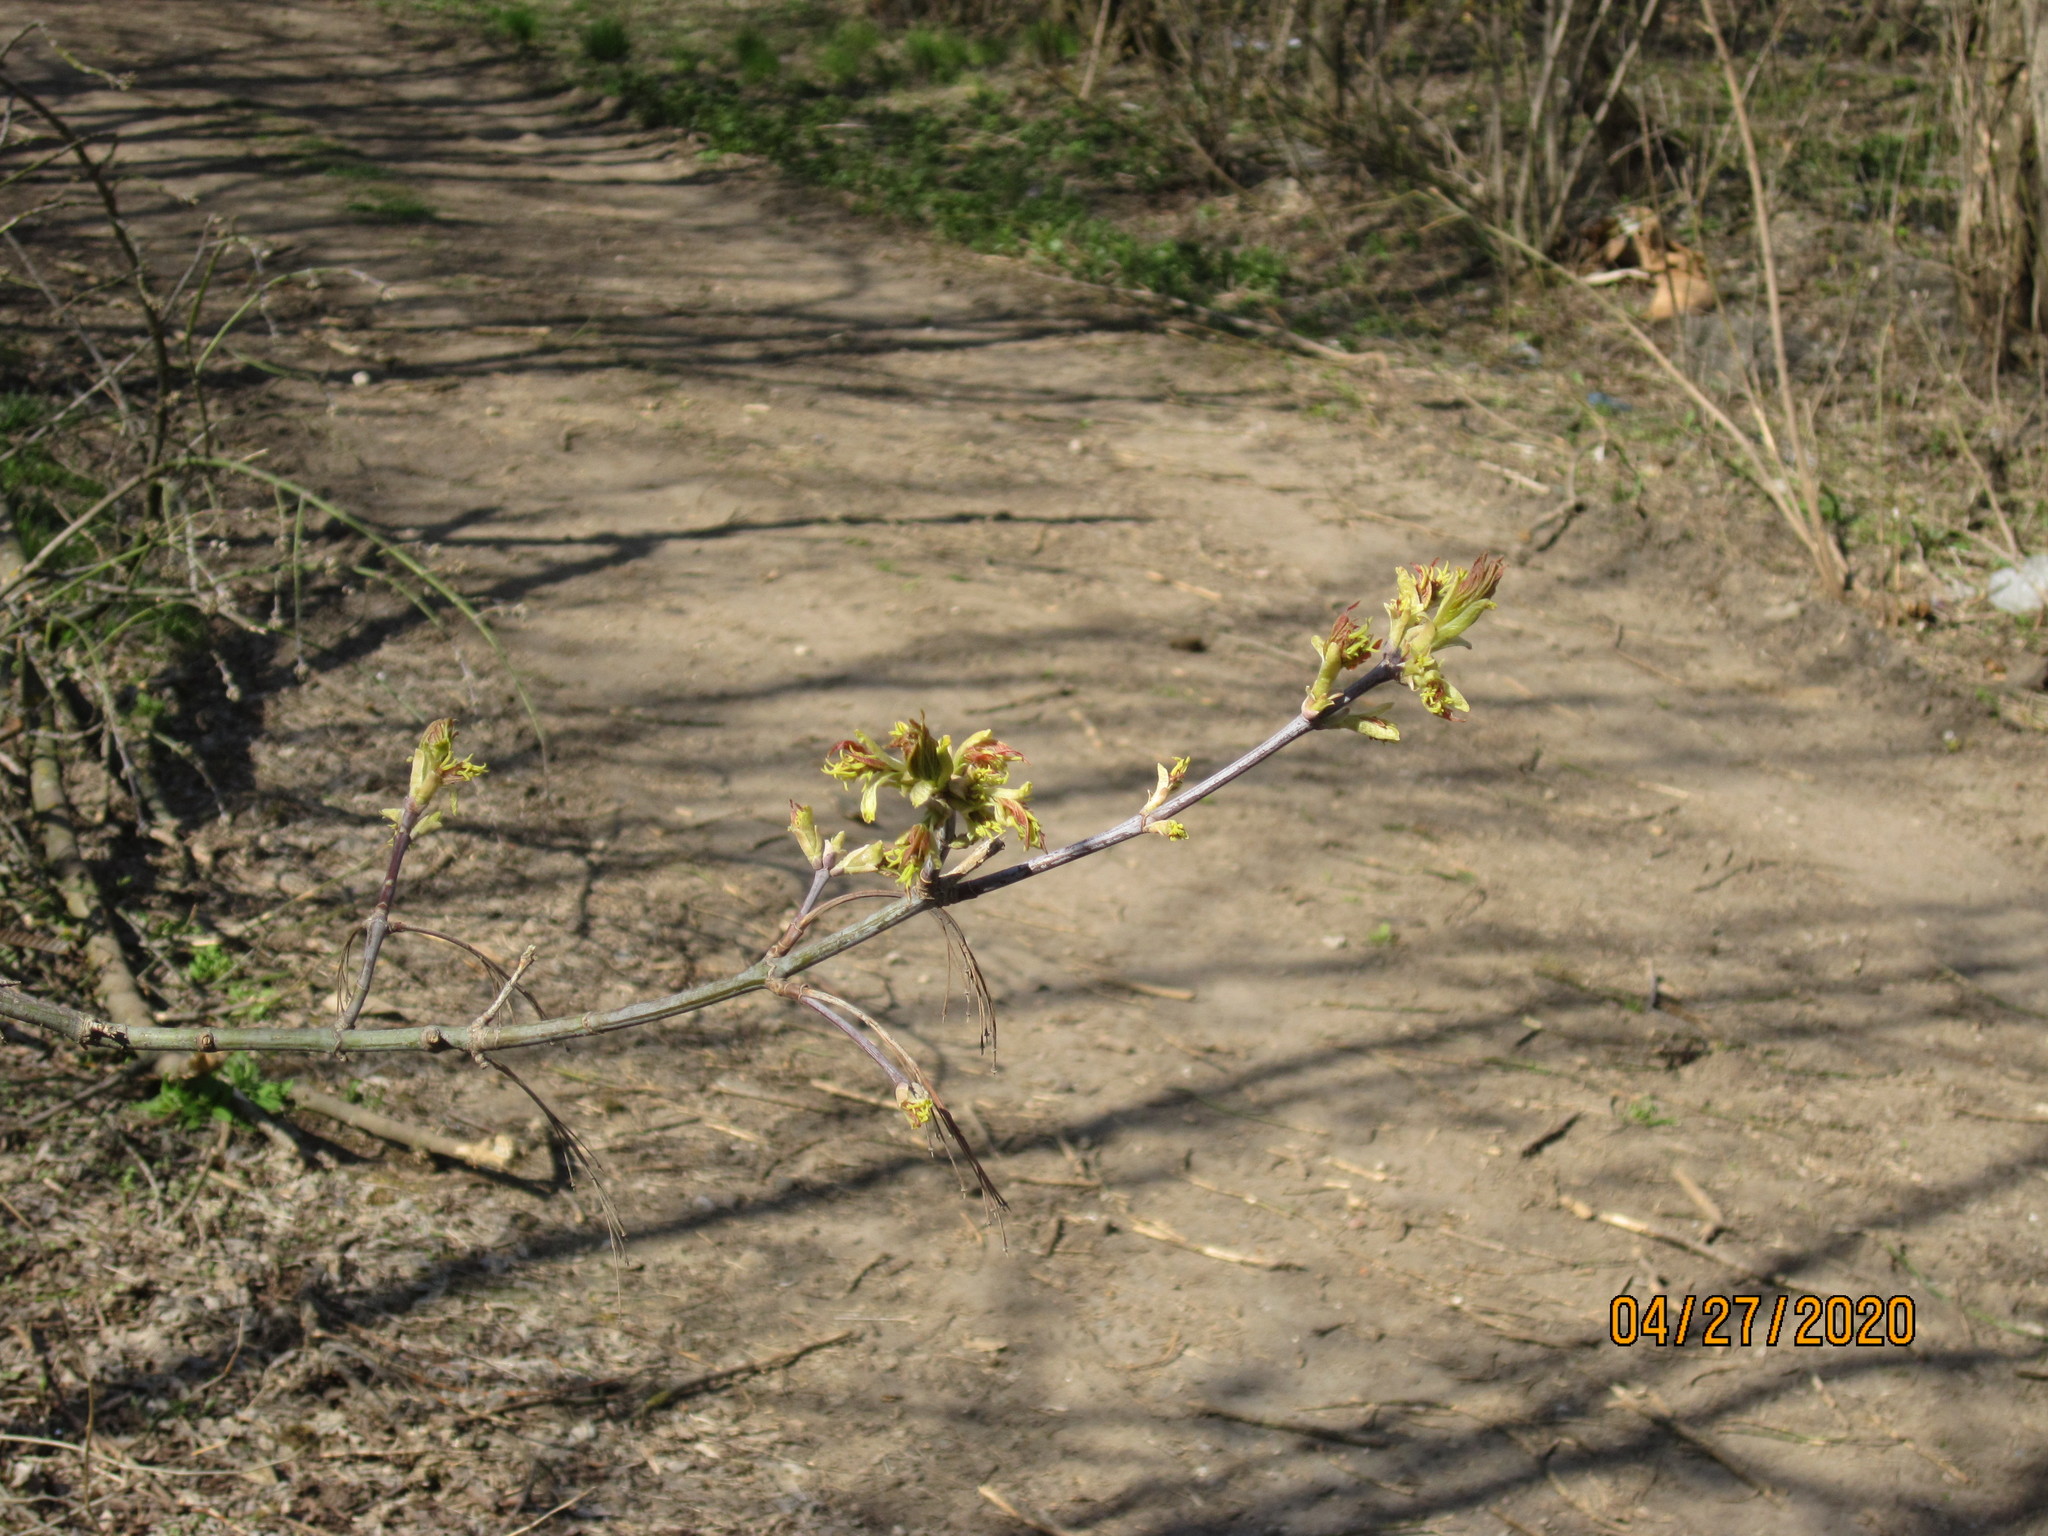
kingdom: Plantae
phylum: Tracheophyta
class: Magnoliopsida
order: Sapindales
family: Sapindaceae
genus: Acer
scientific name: Acer negundo
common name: Ashleaf maple
